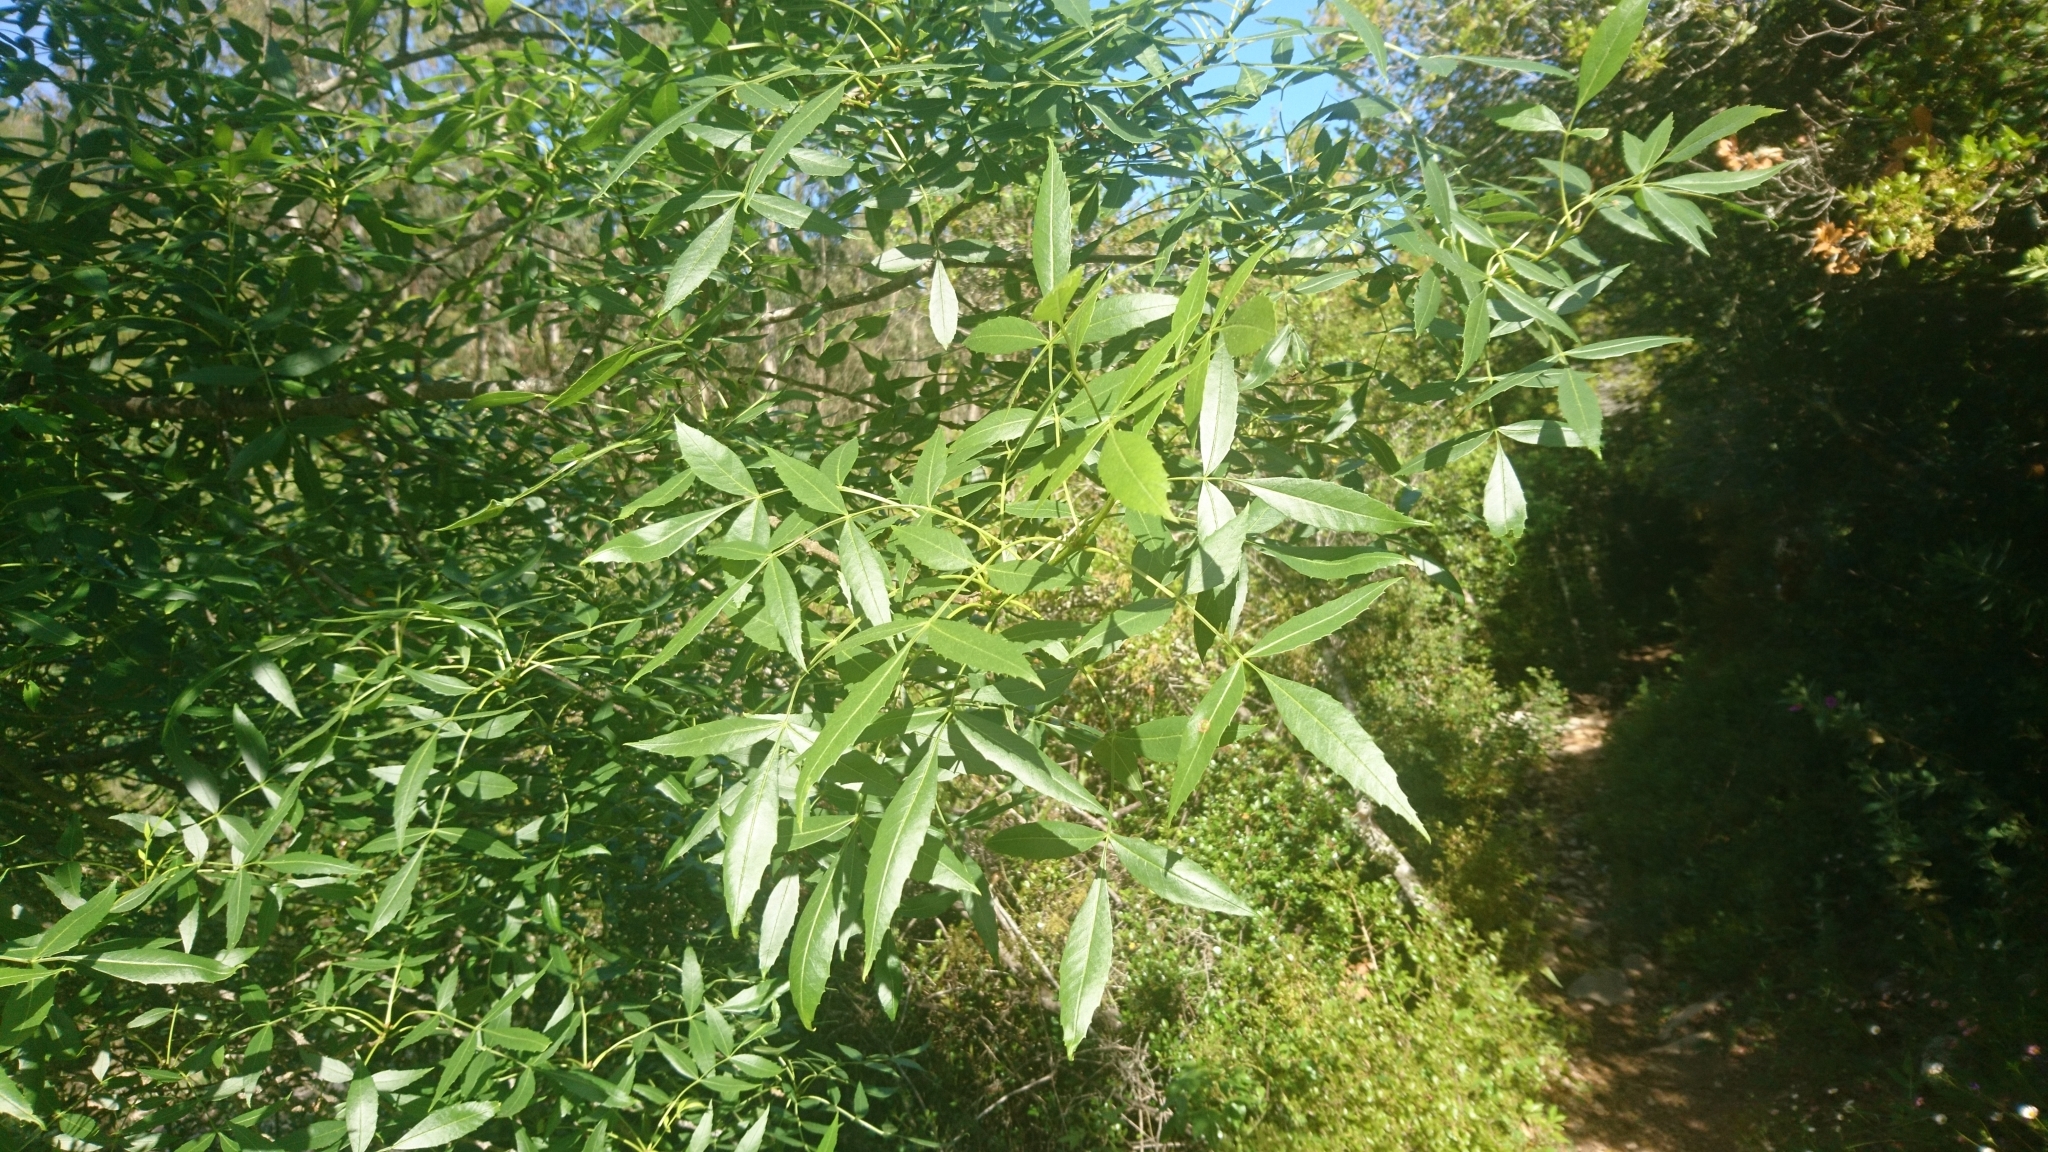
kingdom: Plantae
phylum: Tracheophyta
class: Magnoliopsida
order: Lamiales
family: Oleaceae
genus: Fraxinus
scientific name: Fraxinus angustifolia
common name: Narrow-leafed ash
